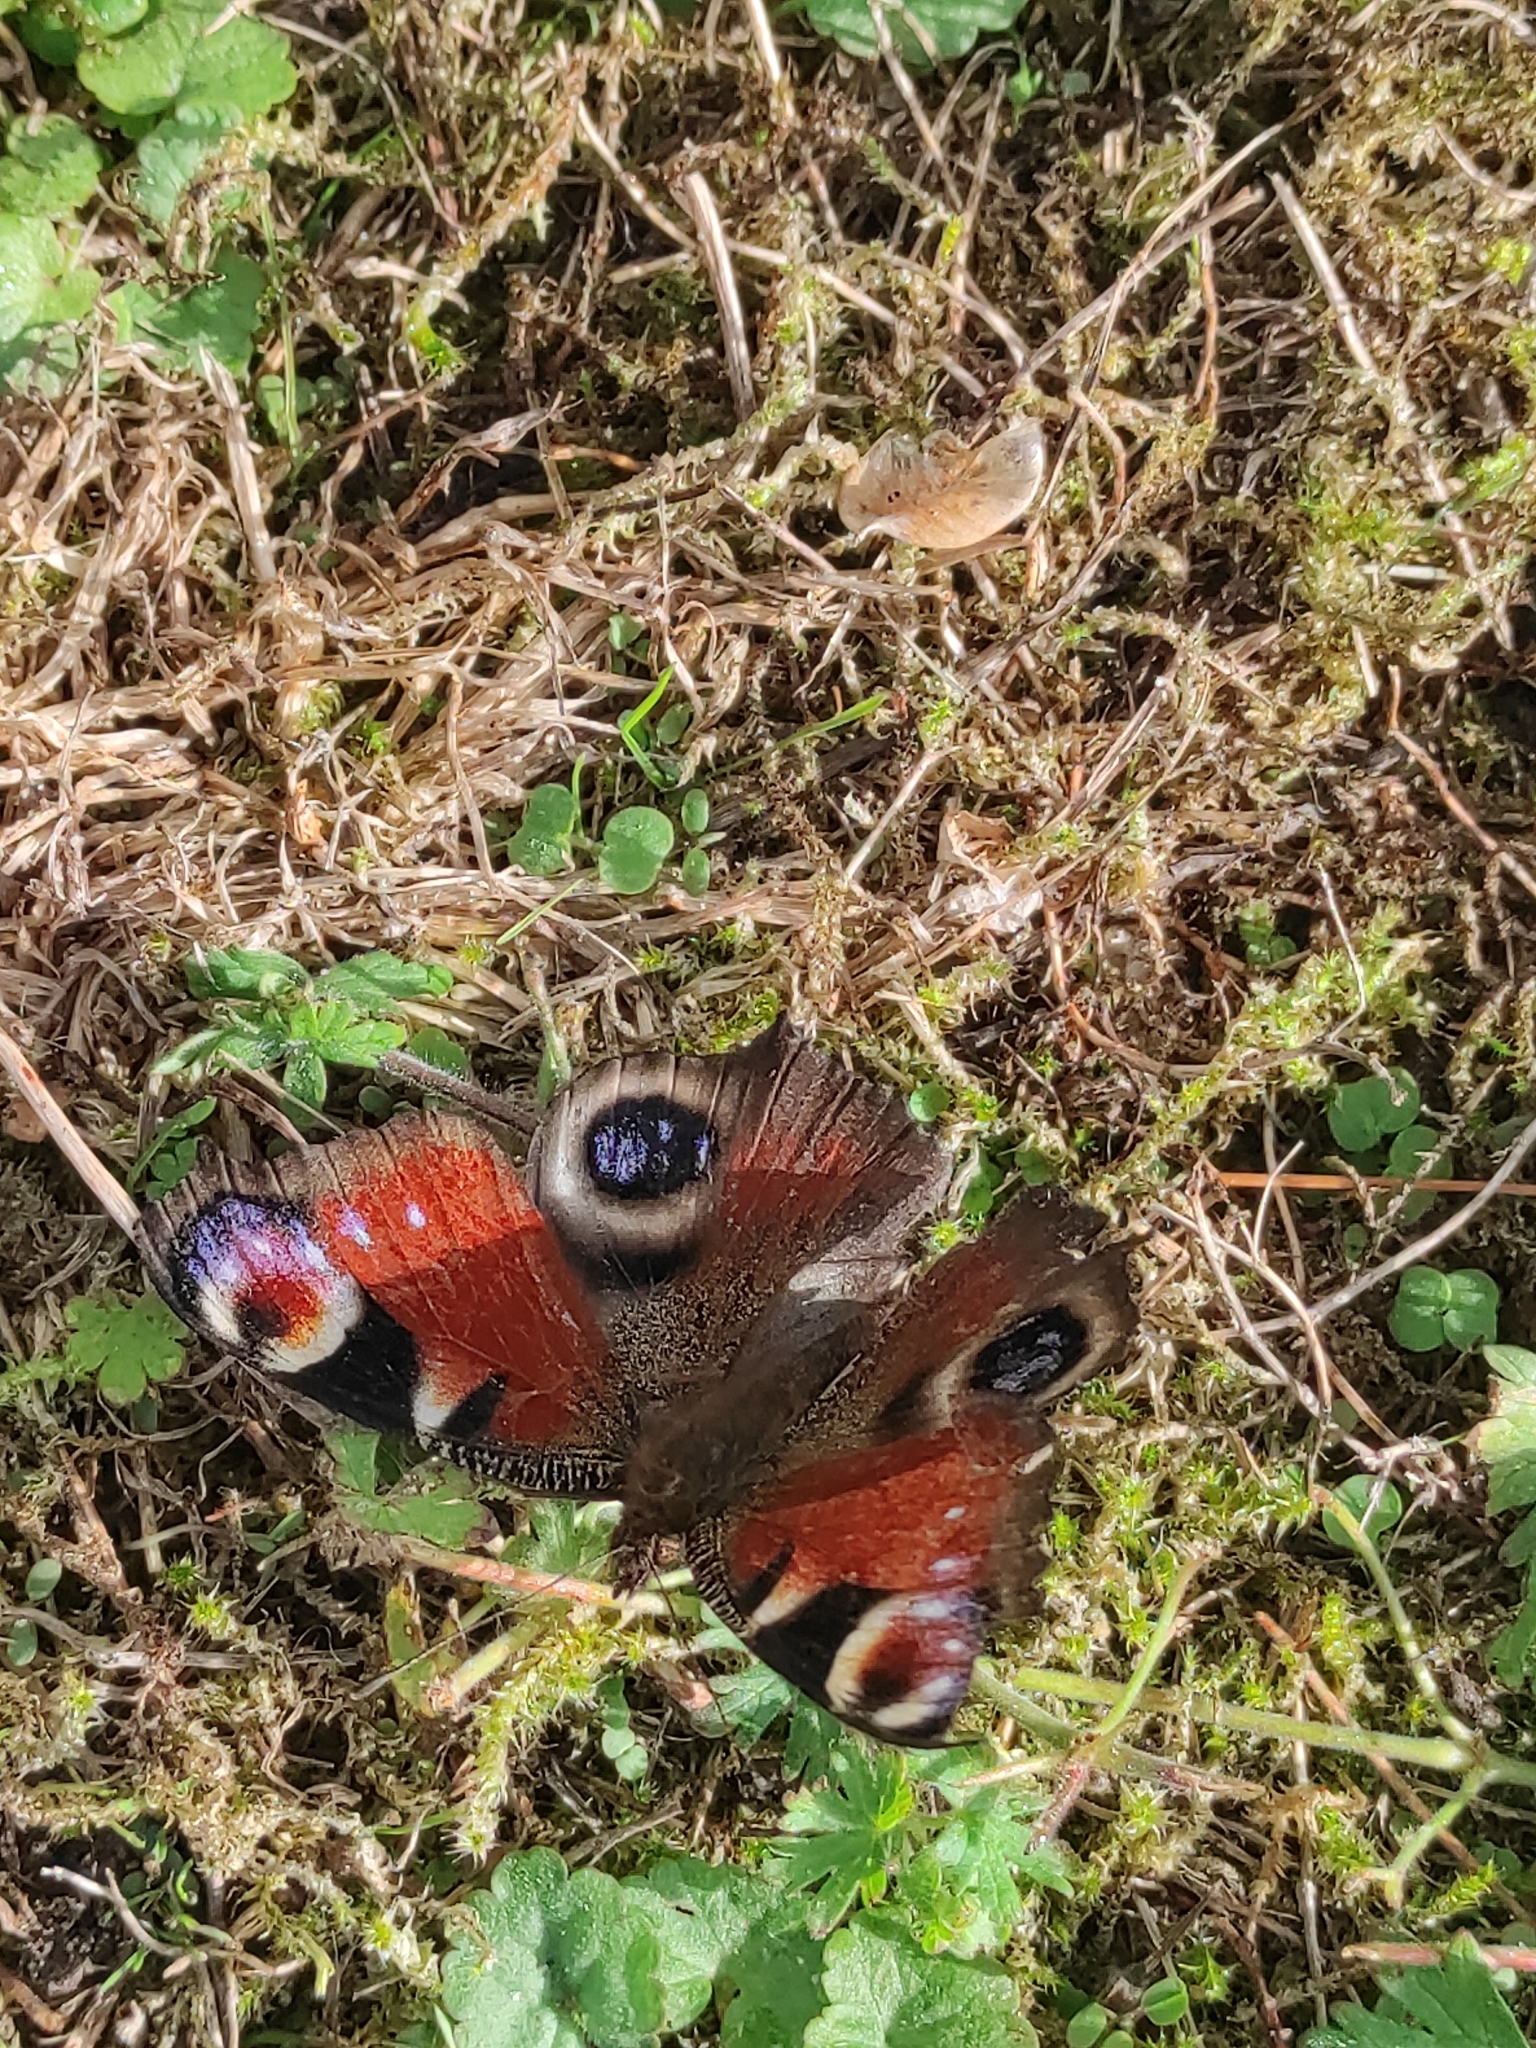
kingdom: Animalia
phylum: Arthropoda
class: Insecta
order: Lepidoptera
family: Nymphalidae
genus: Aglais
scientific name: Aglais io
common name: Peacock
